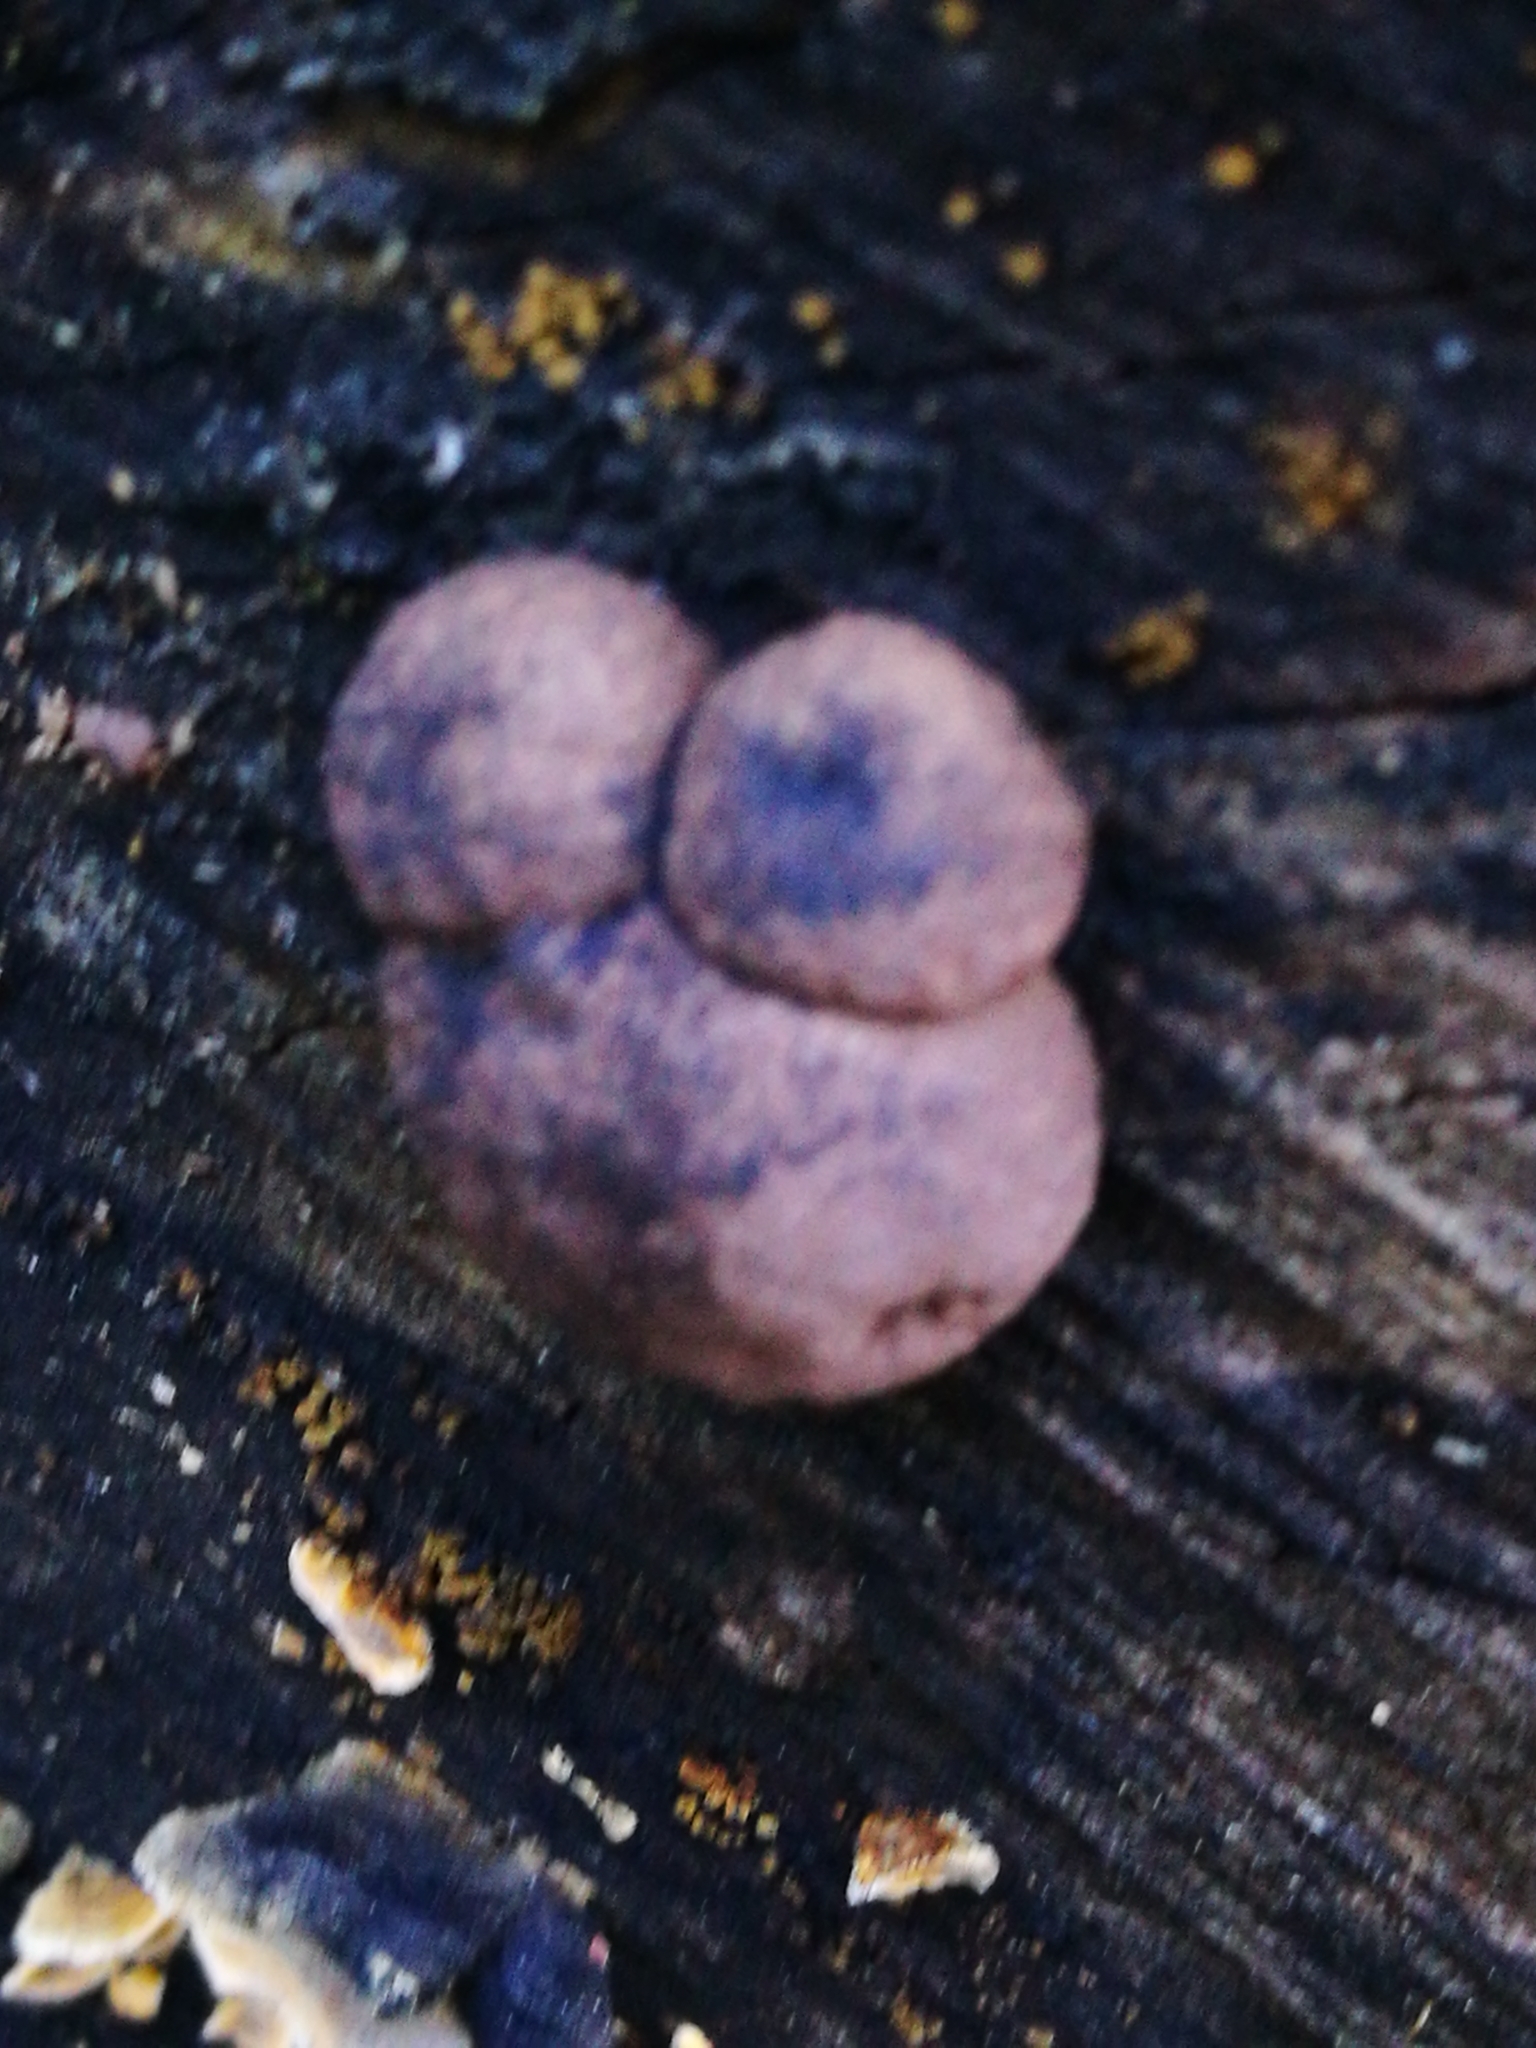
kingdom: Fungi
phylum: Ascomycota
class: Sordariomycetes
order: Xylariales
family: Hypoxylaceae
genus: Daldinia
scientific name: Daldinia
